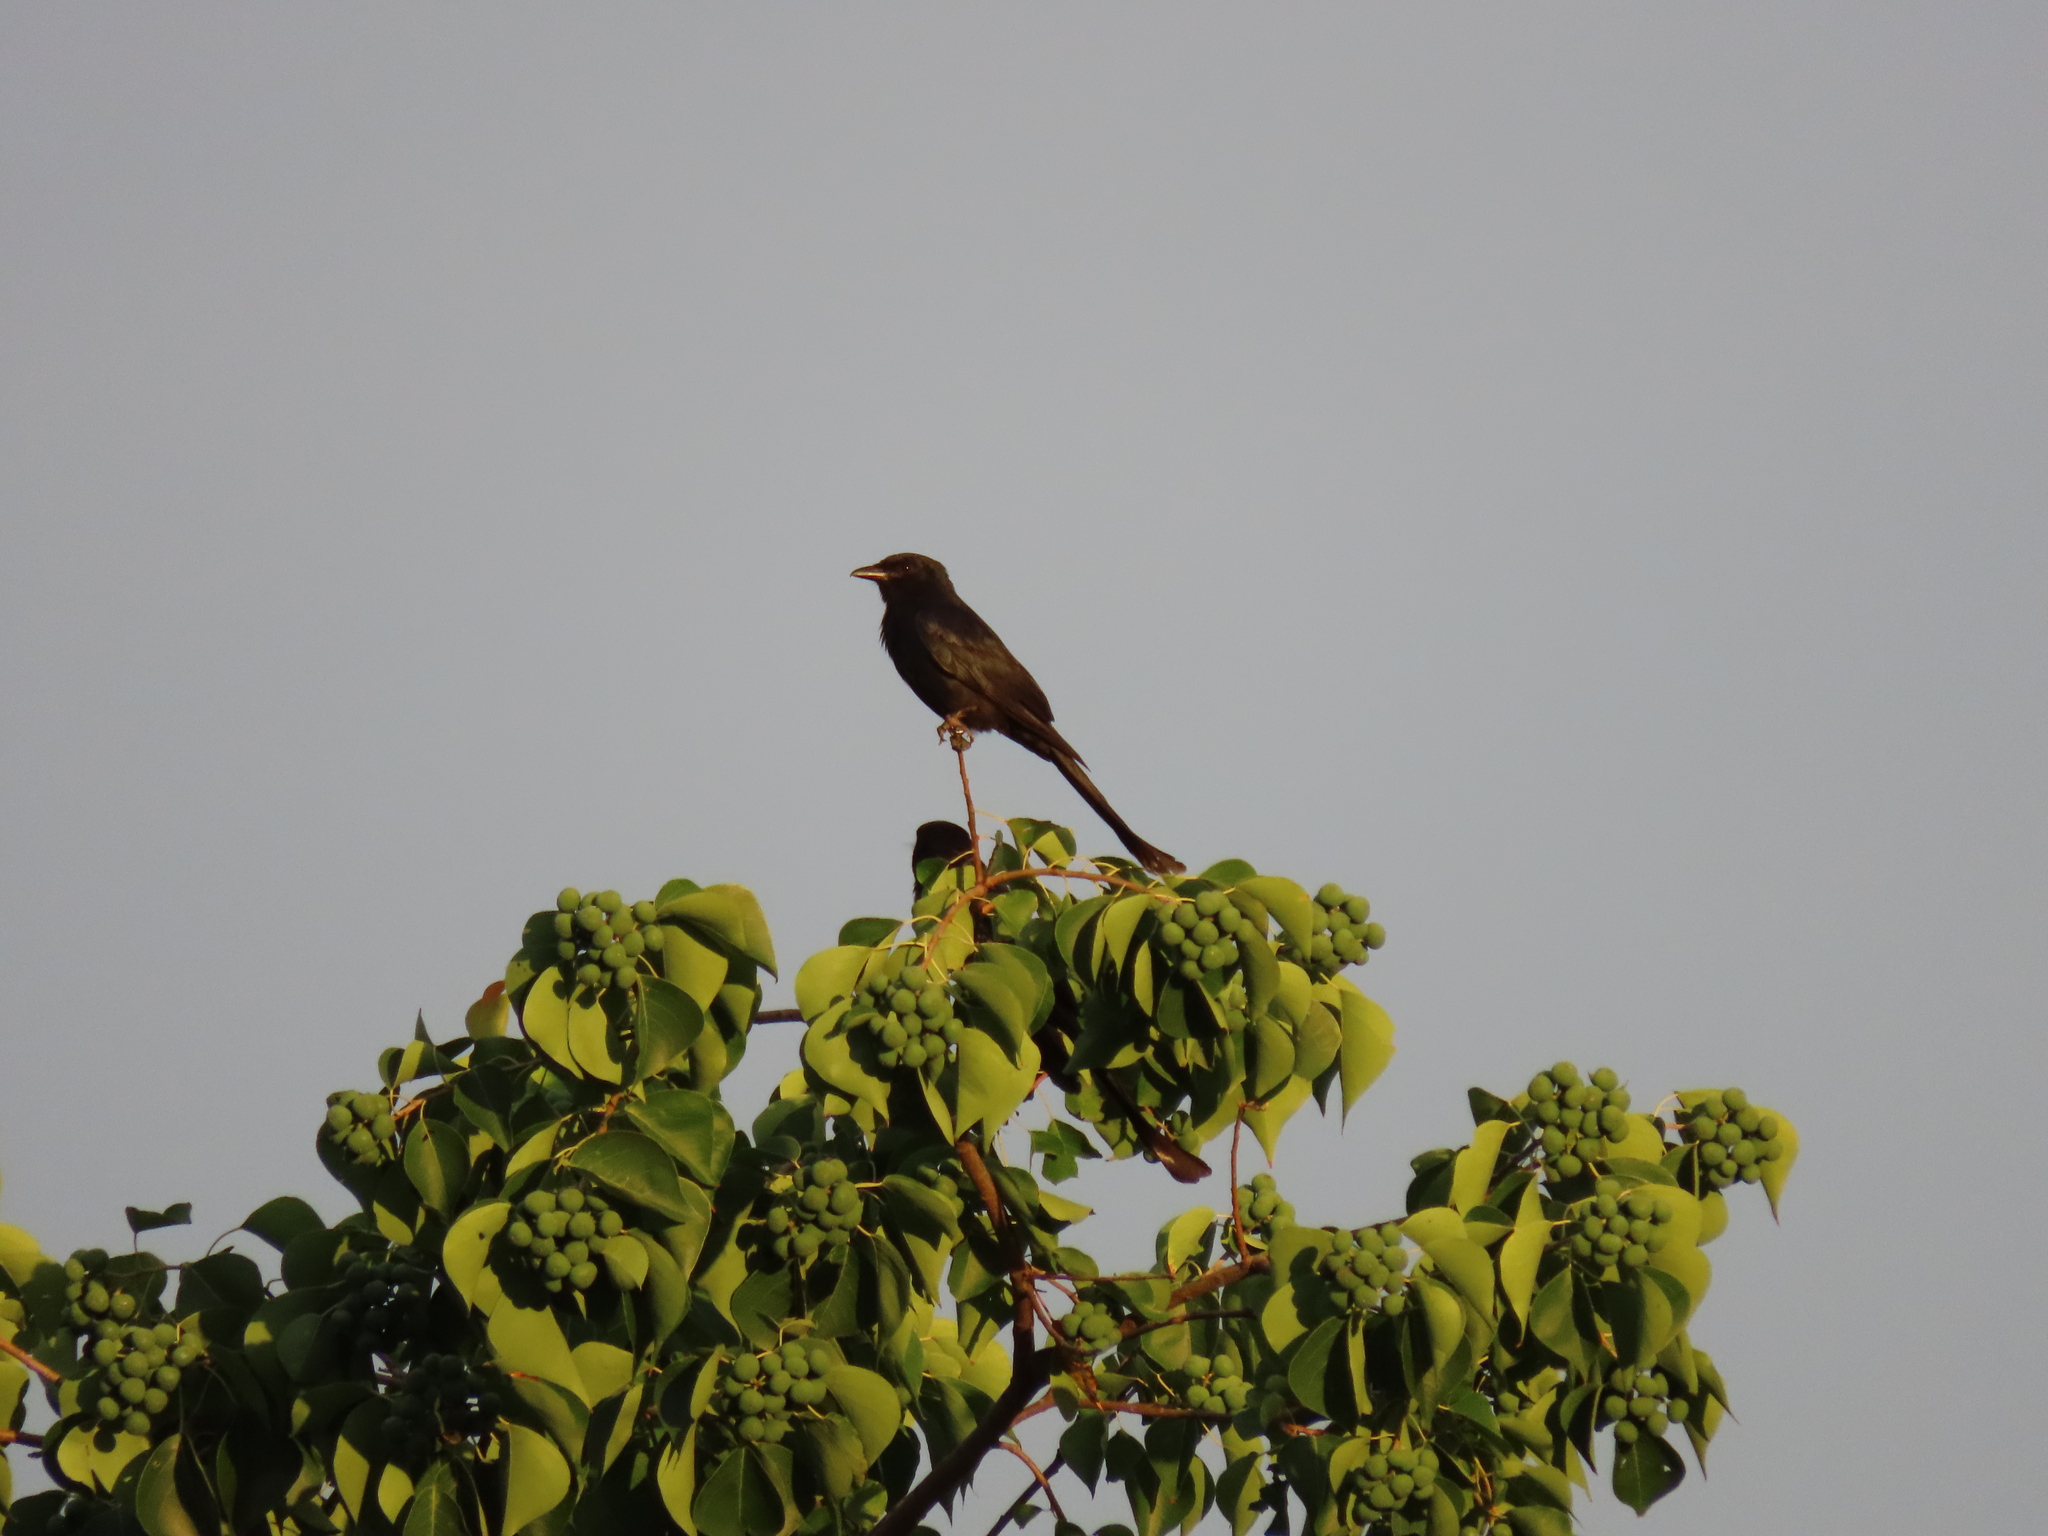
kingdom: Animalia
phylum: Chordata
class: Aves
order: Passeriformes
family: Dicruridae
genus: Dicrurus
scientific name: Dicrurus macrocercus
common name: Black drongo
